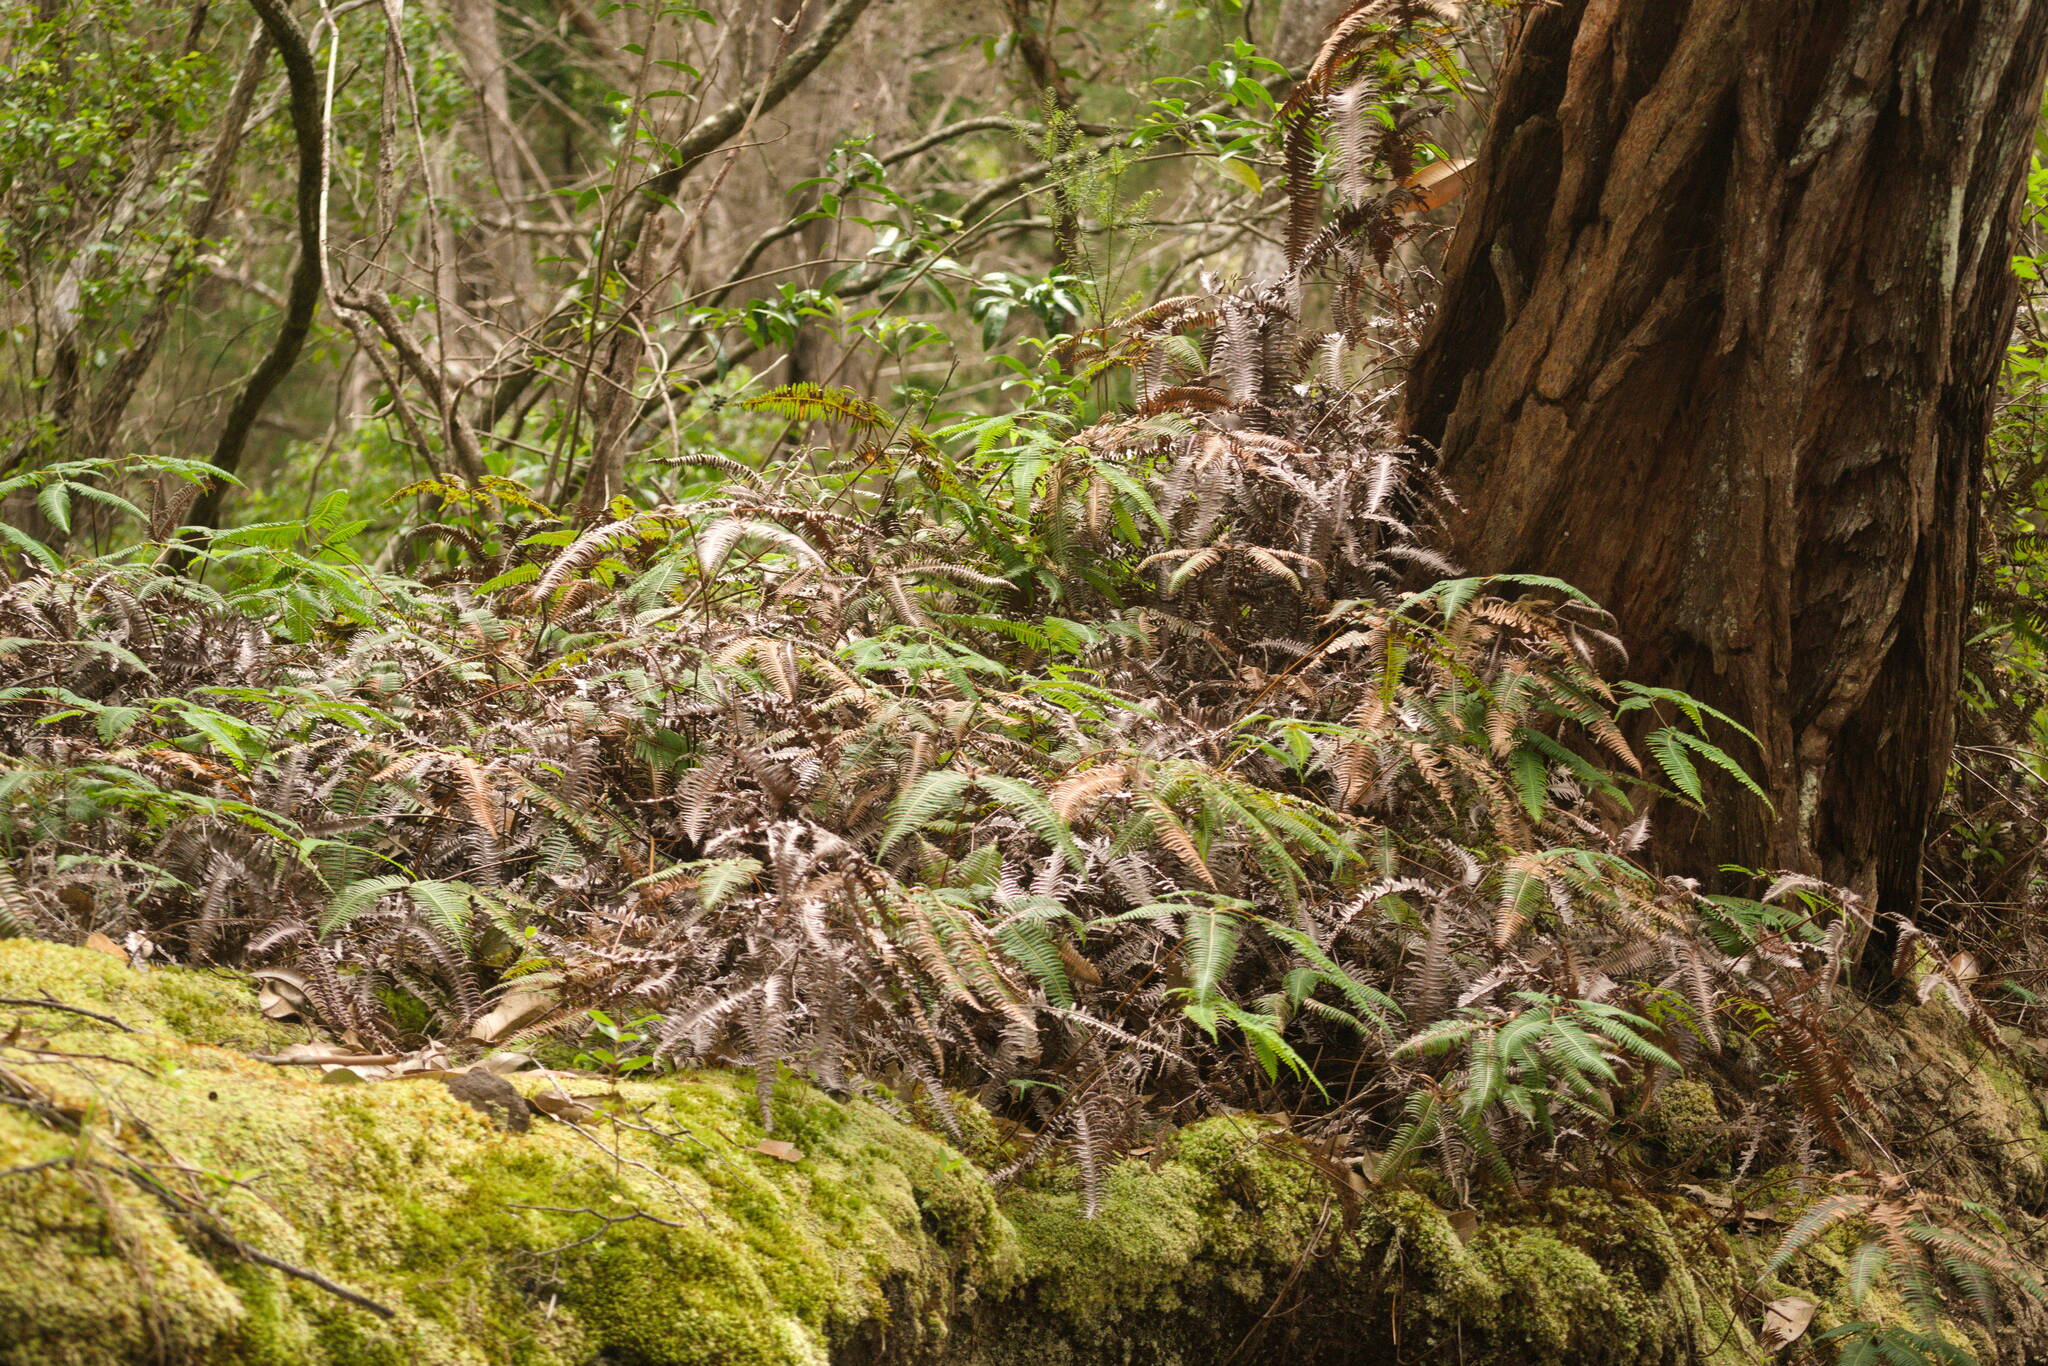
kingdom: Plantae
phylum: Tracheophyta
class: Polypodiopsida
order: Gleicheniales
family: Gleicheniaceae
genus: Dicranopteris
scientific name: Dicranopteris linearis
